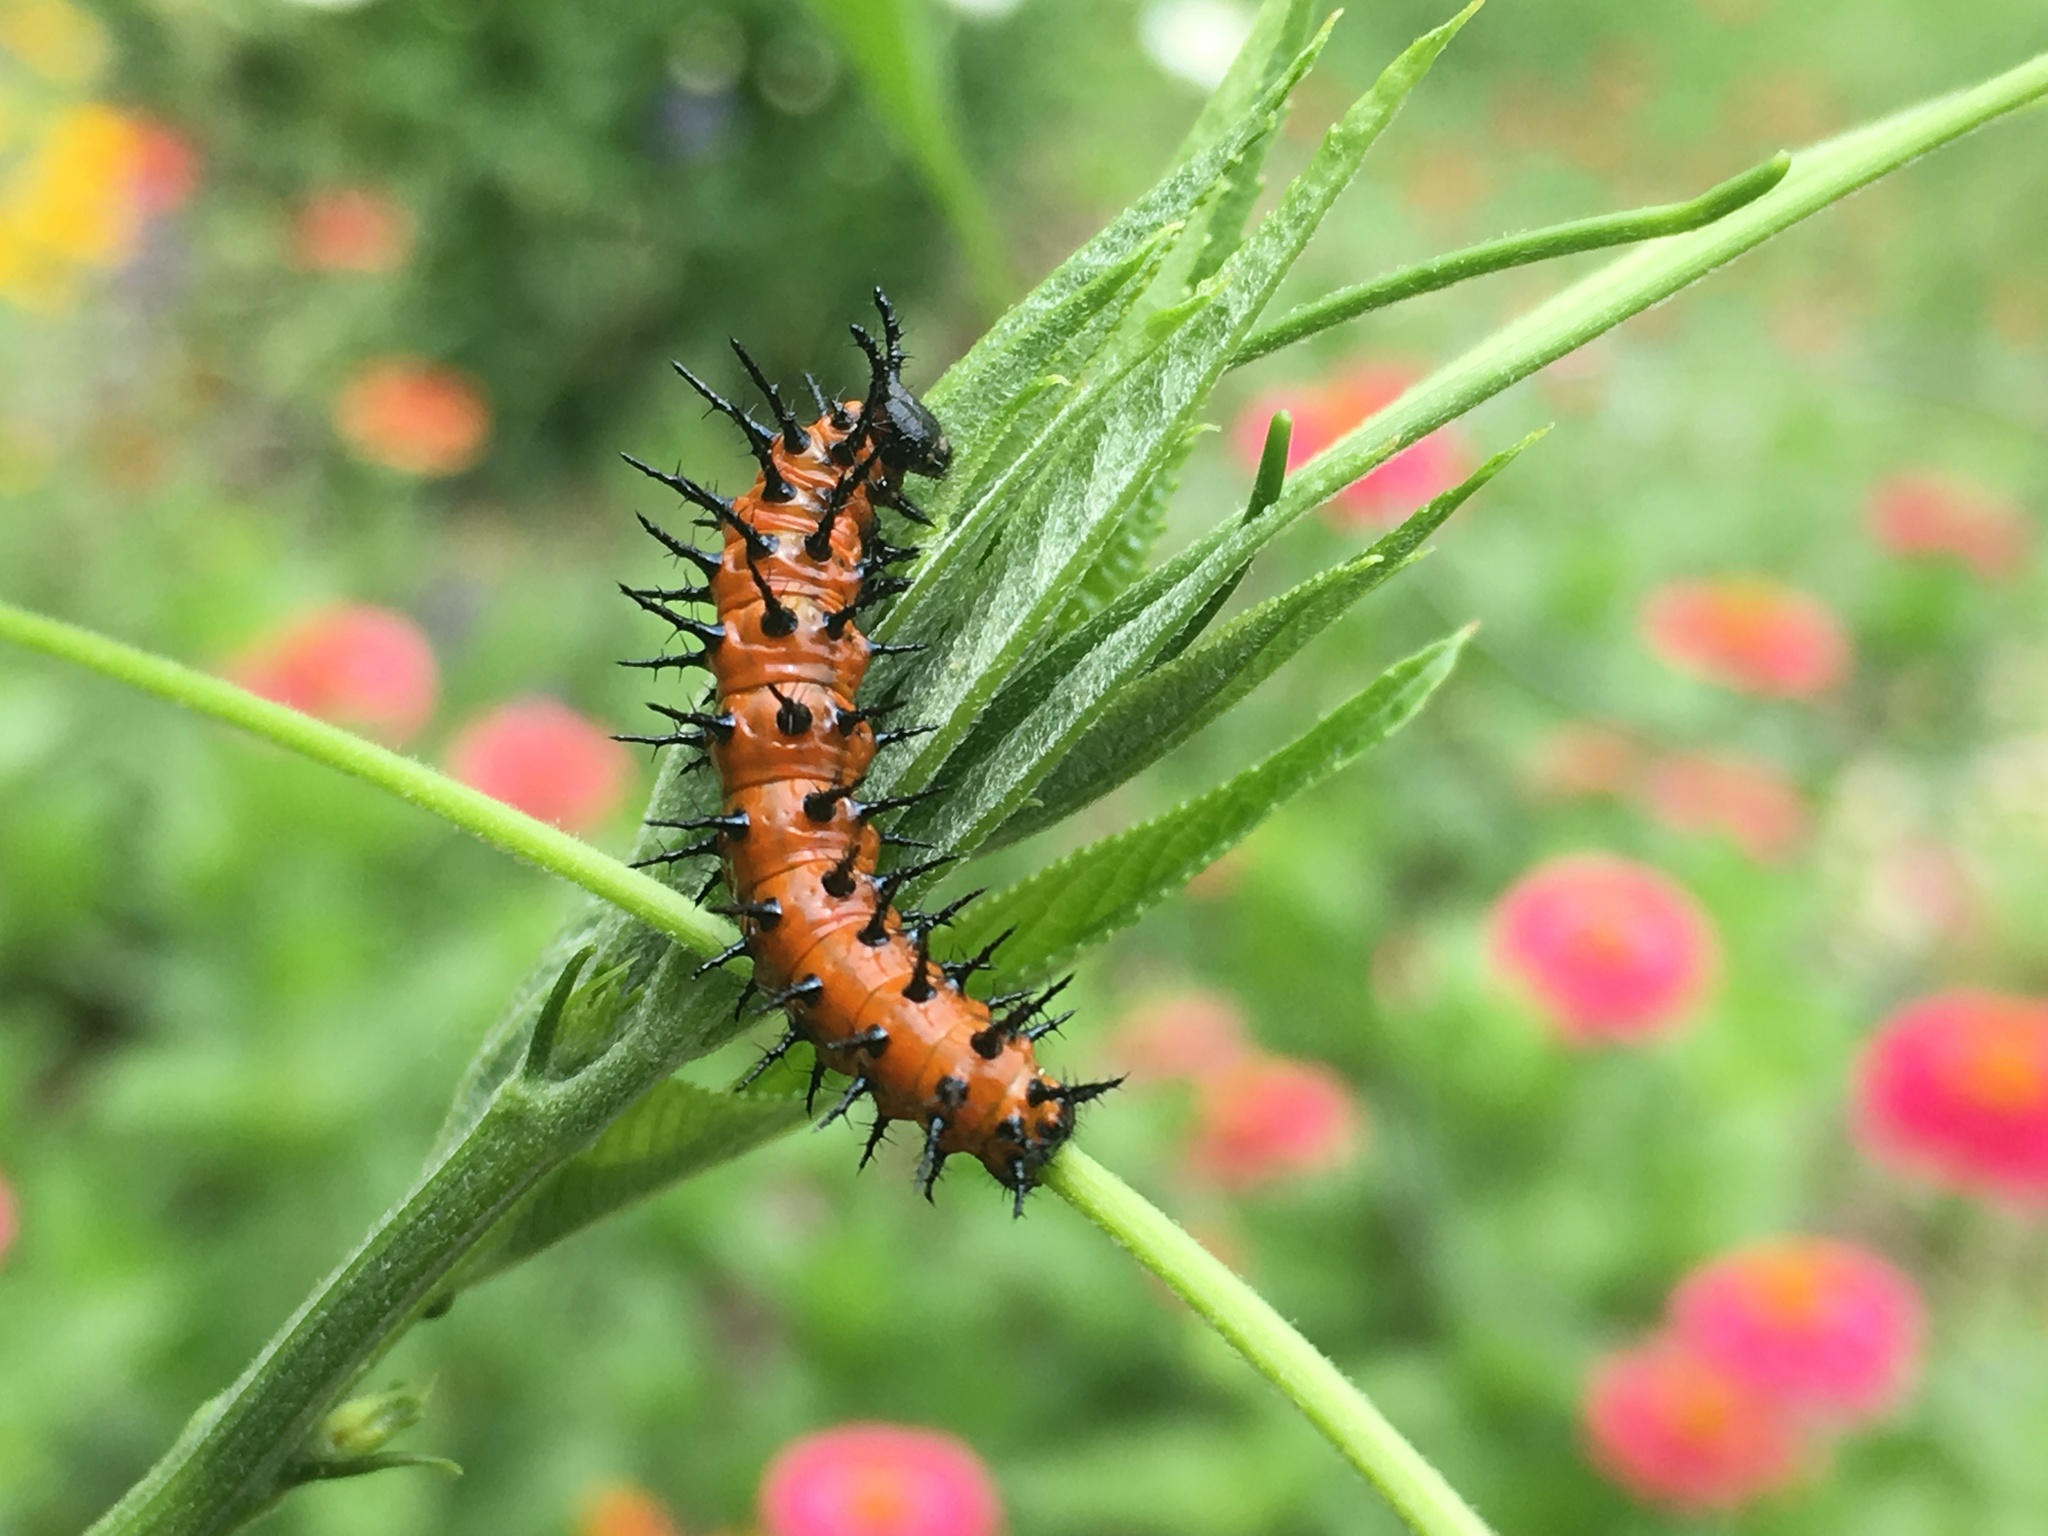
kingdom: Animalia
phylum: Arthropoda
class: Insecta
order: Lepidoptera
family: Nymphalidae
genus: Dione
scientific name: Dione vanillae
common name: Gulf fritillary
